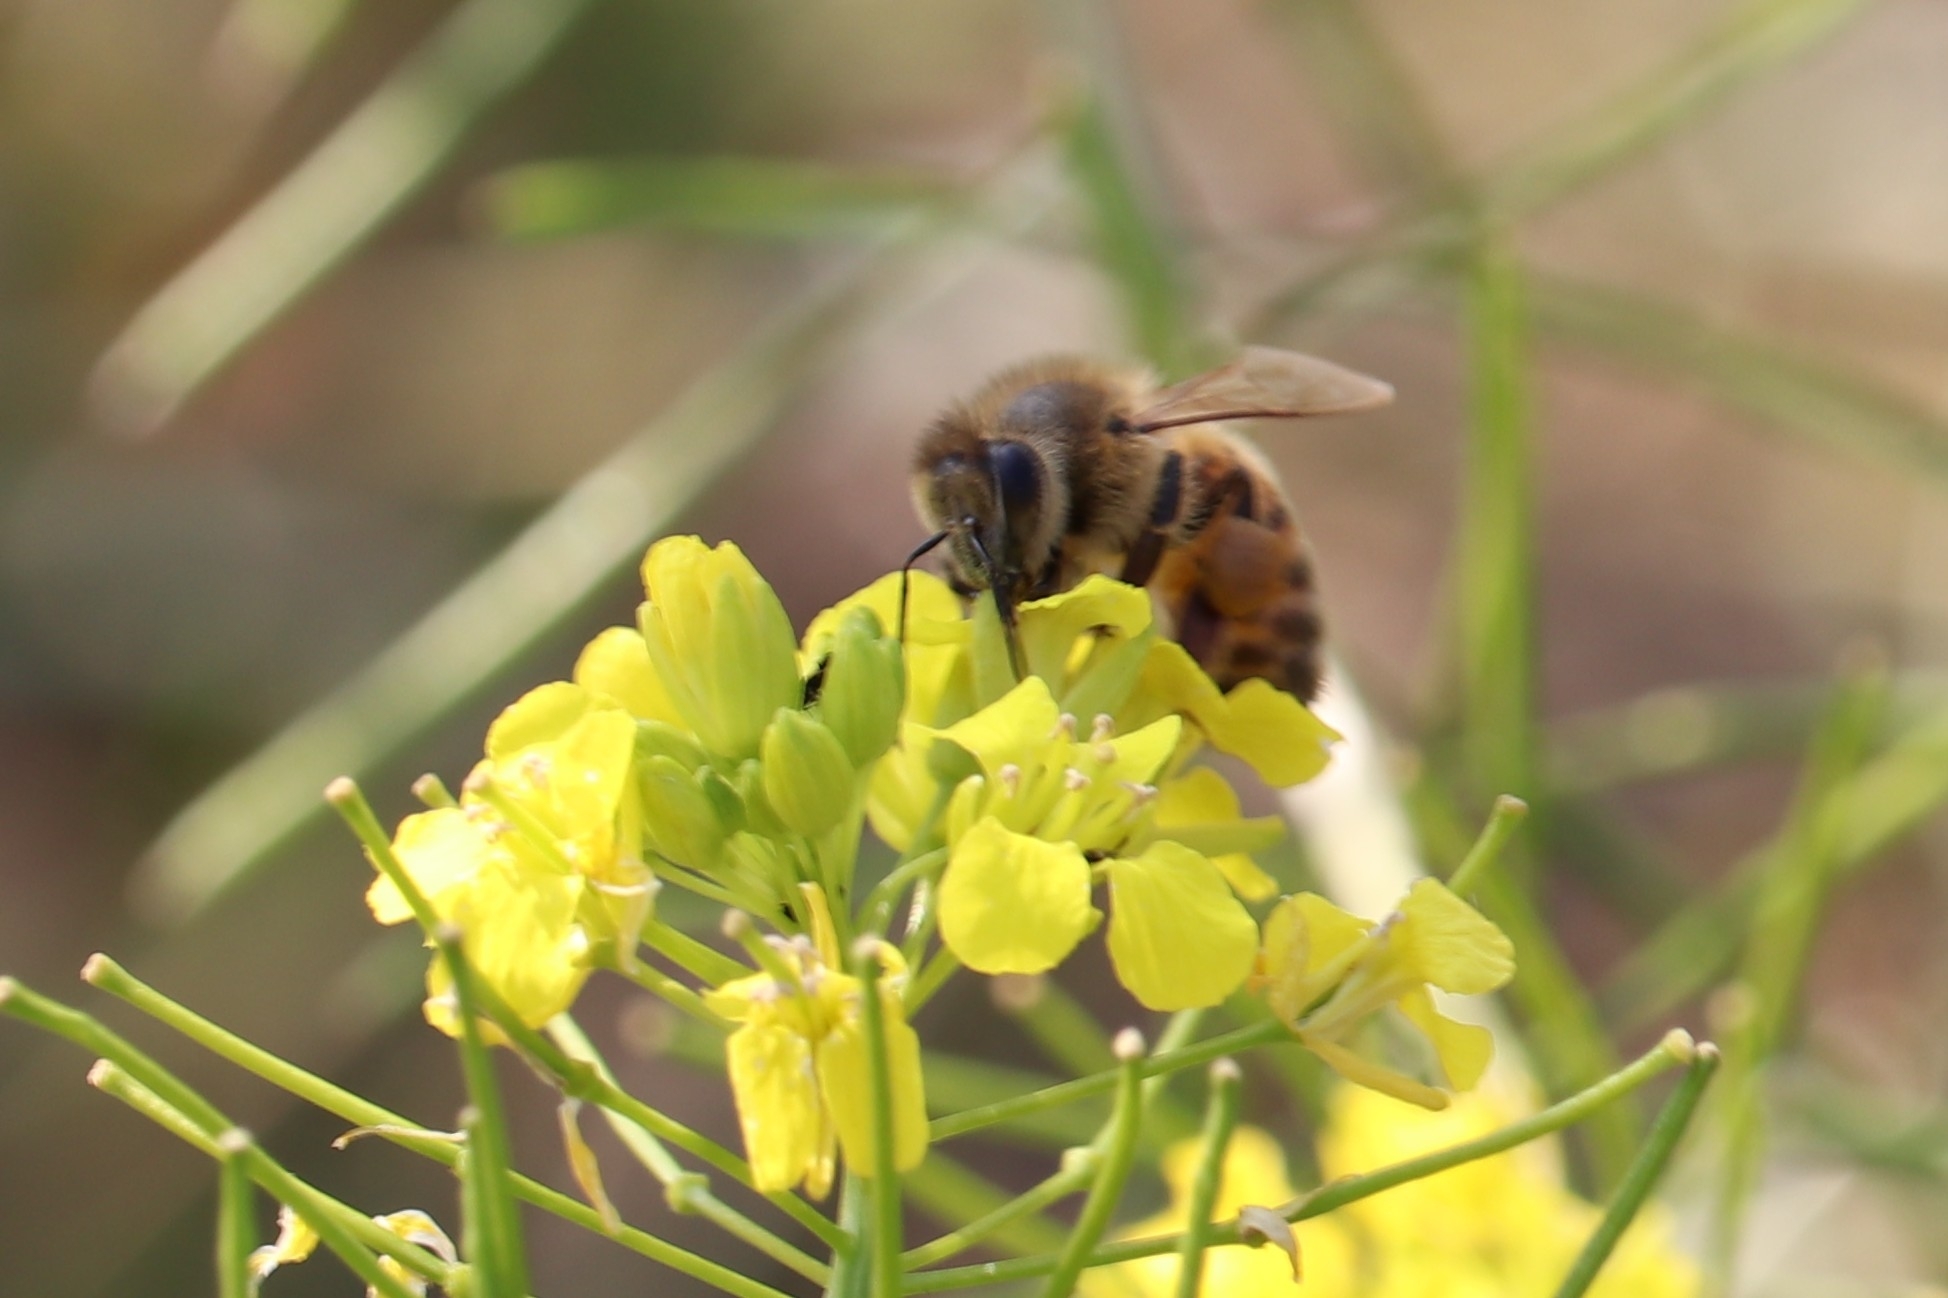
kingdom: Animalia
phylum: Arthropoda
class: Insecta
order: Hymenoptera
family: Apidae
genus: Apis
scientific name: Apis mellifera
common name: Honey bee
